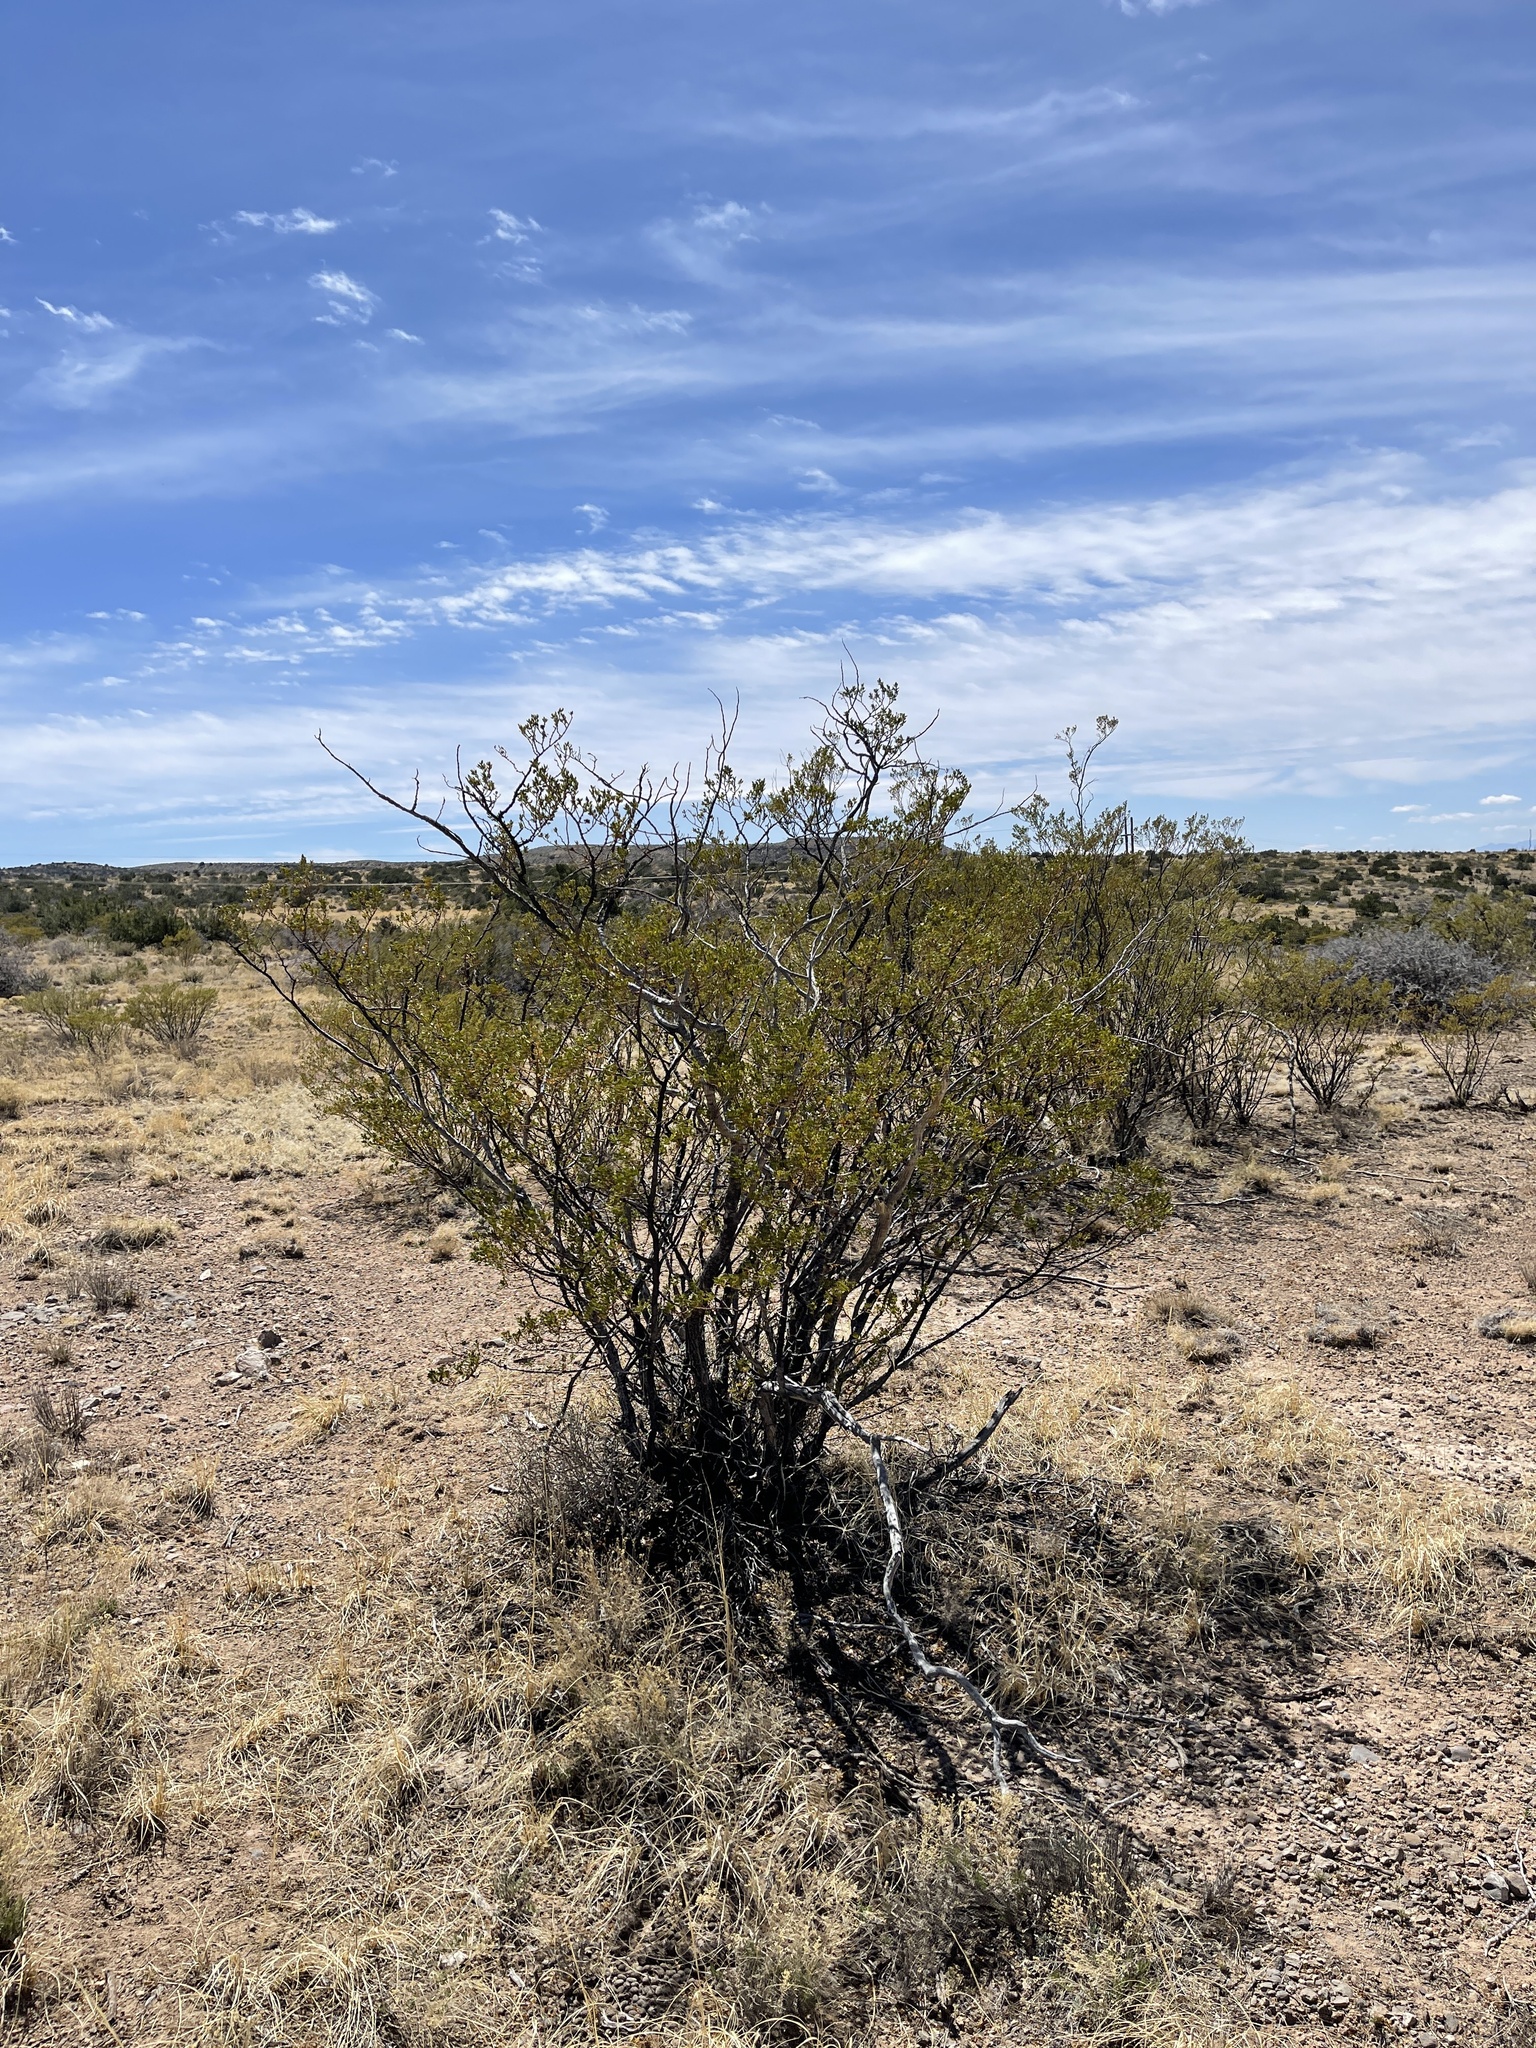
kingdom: Plantae
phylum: Tracheophyta
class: Magnoliopsida
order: Zygophyllales
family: Zygophyllaceae
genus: Larrea
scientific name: Larrea tridentata
